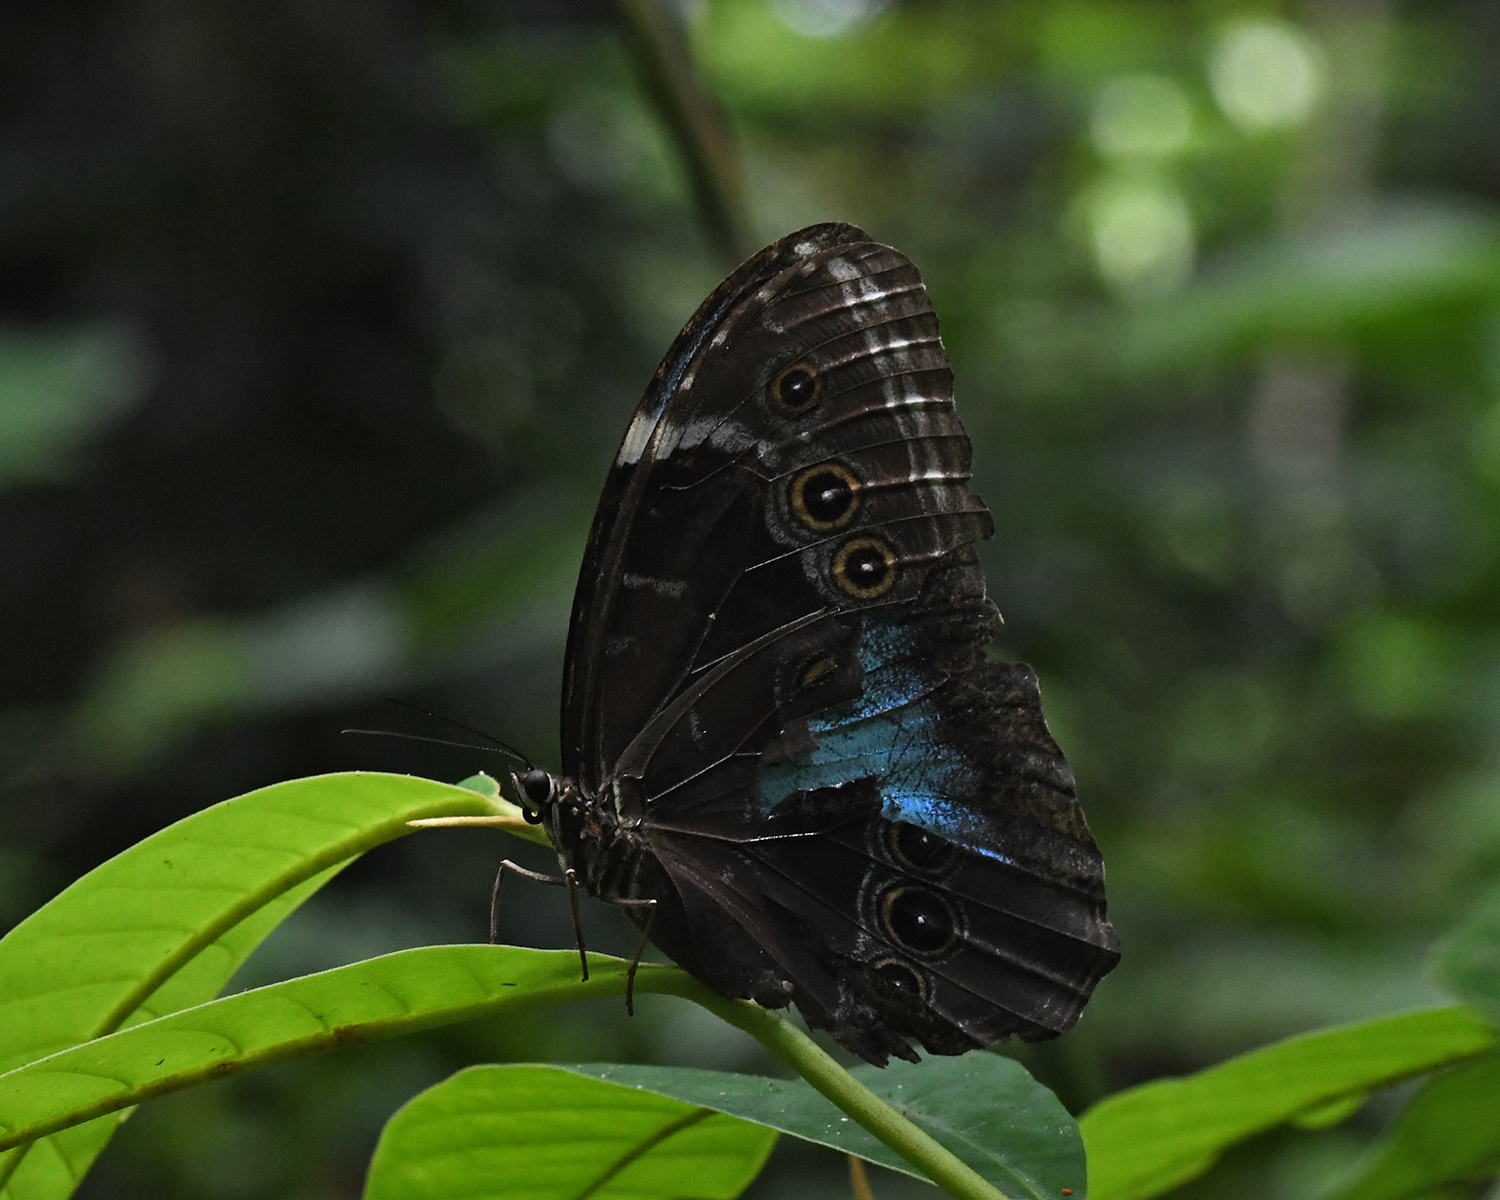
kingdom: Animalia
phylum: Arthropoda
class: Insecta
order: Lepidoptera
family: Nymphalidae
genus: Morpho
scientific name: Morpho helenor
